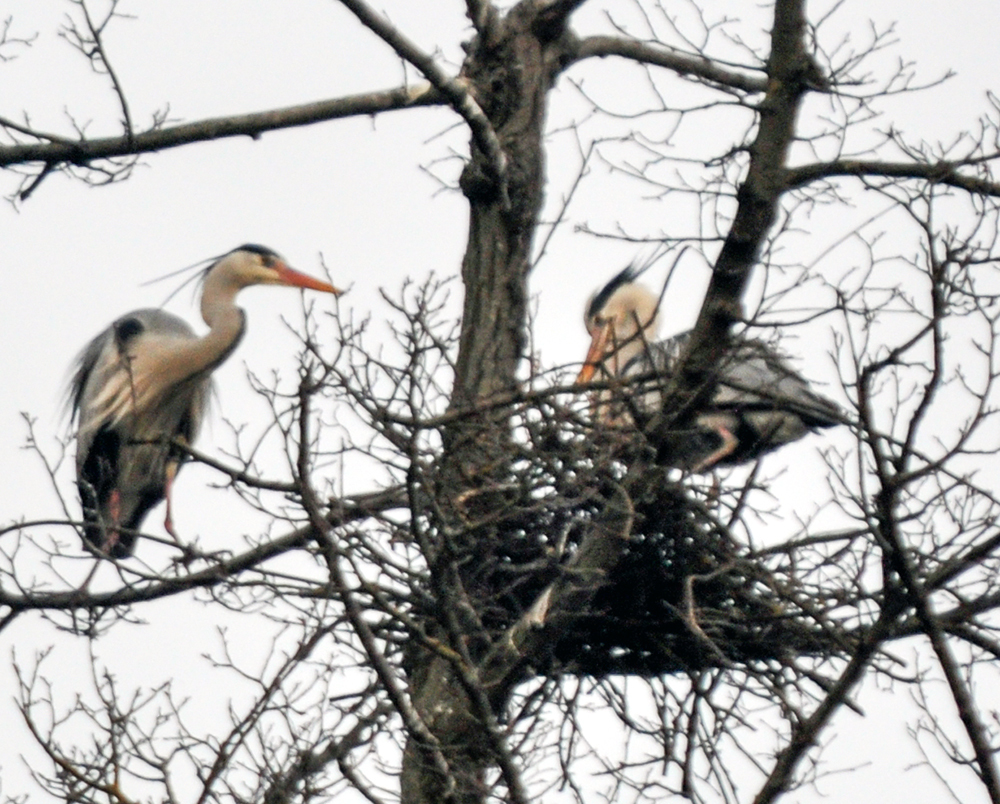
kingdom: Animalia
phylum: Chordata
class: Aves
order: Pelecaniformes
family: Ardeidae
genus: Ardea
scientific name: Ardea cinerea
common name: Grey heron
